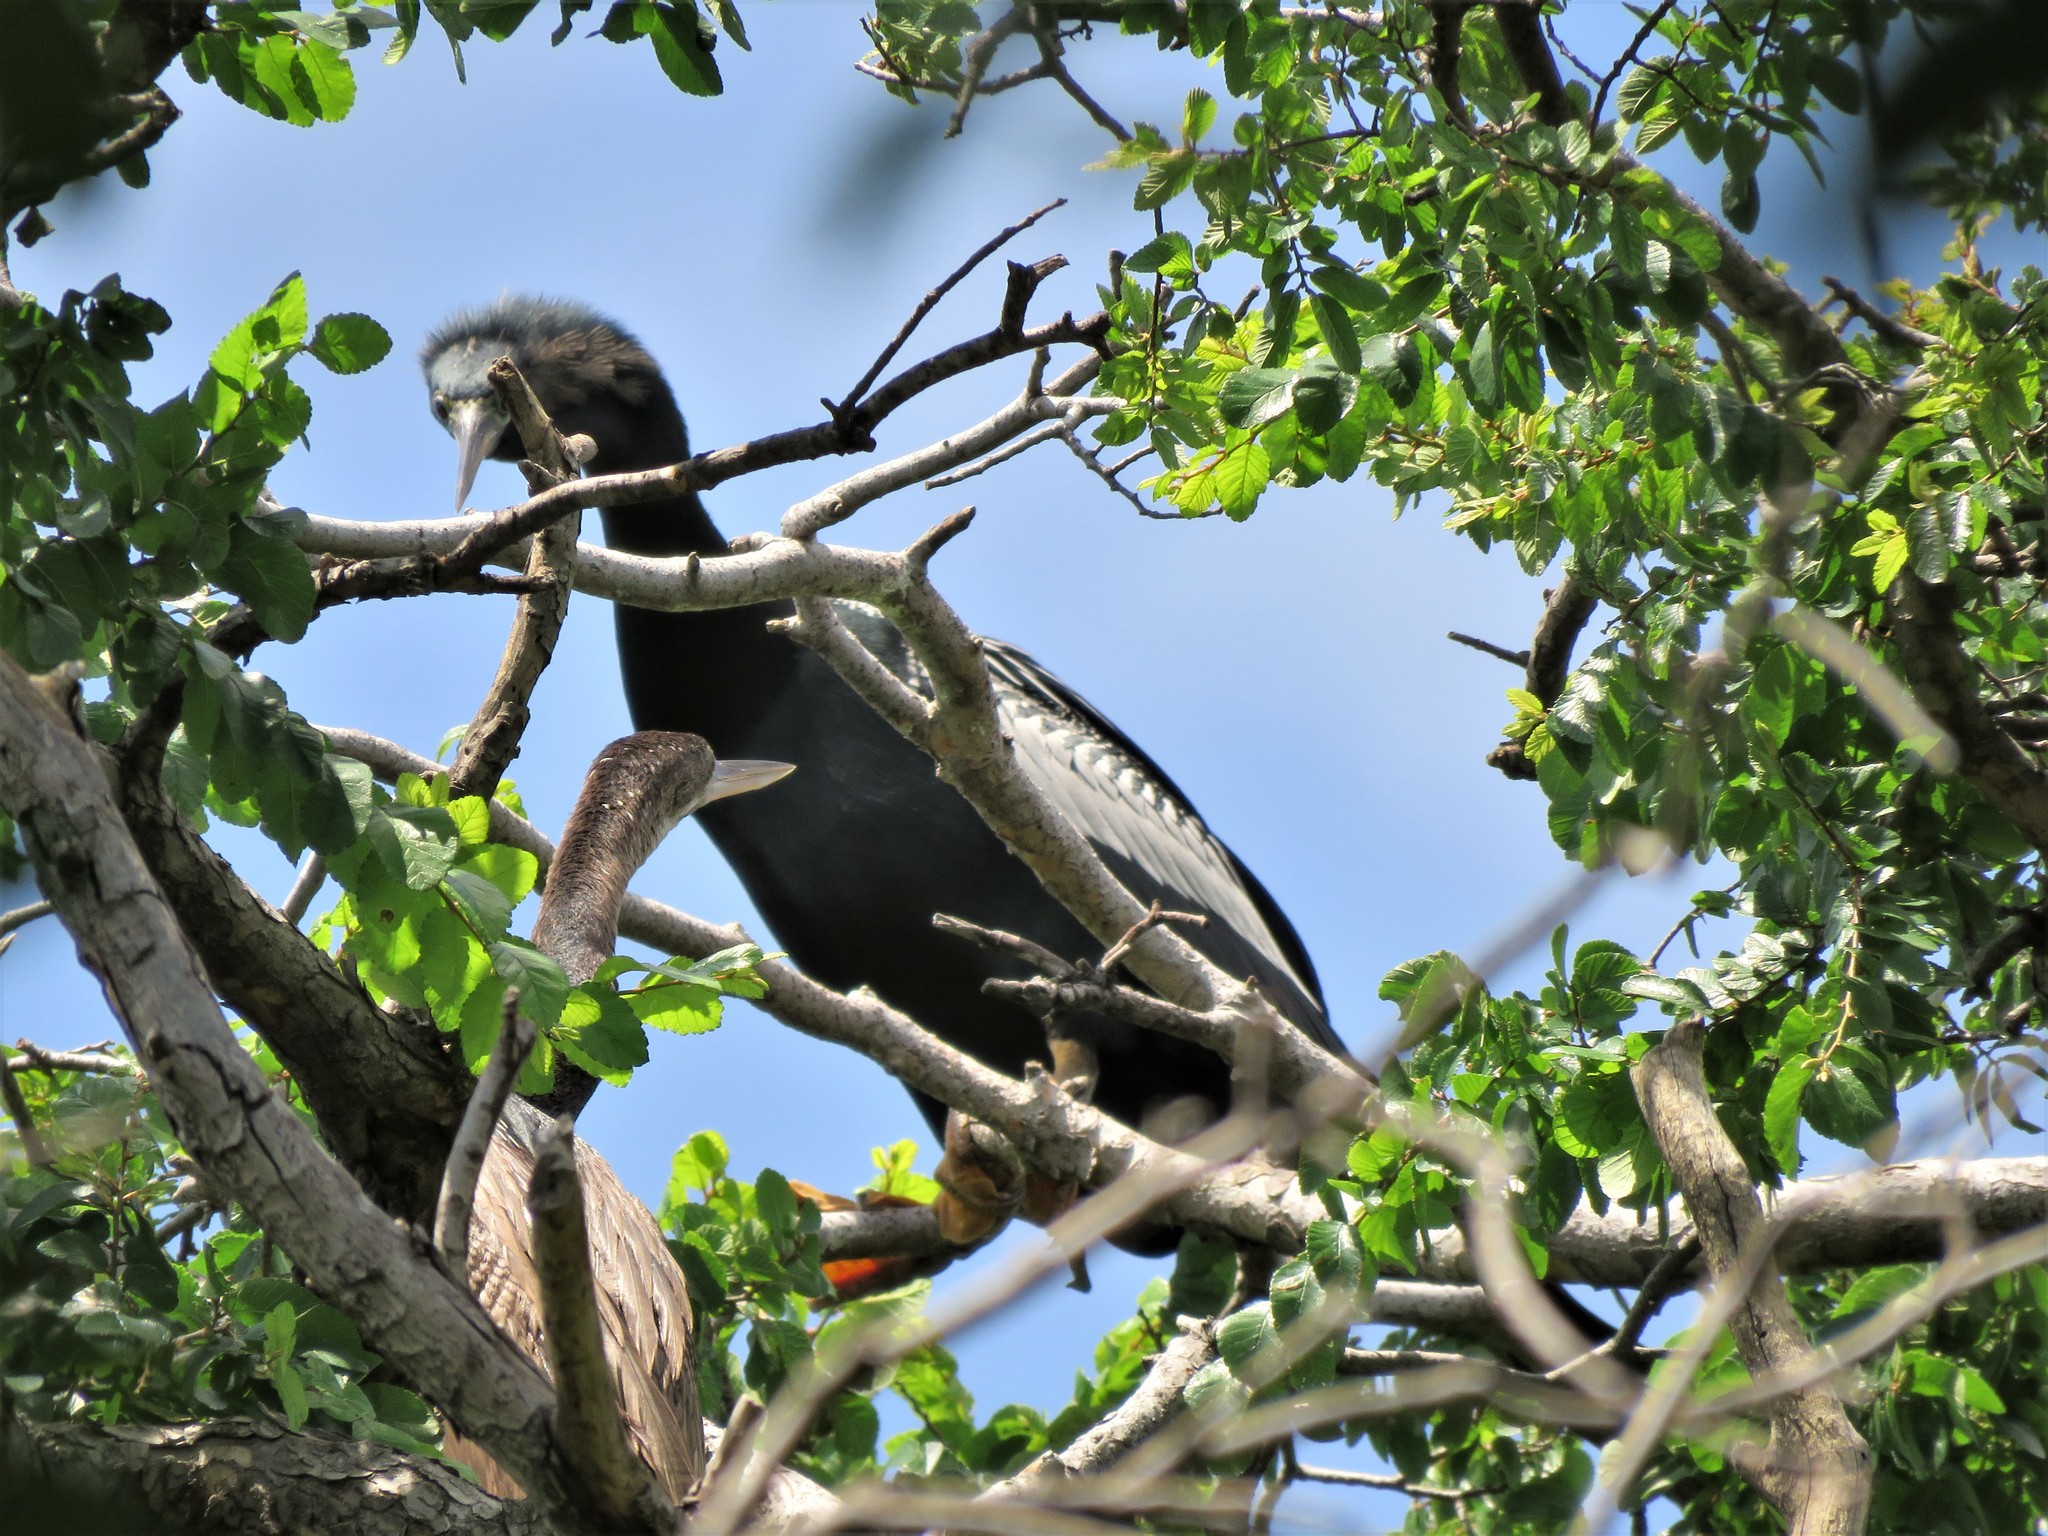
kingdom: Animalia
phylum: Chordata
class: Aves
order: Suliformes
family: Anhingidae
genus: Anhinga
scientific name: Anhinga anhinga
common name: Anhinga
